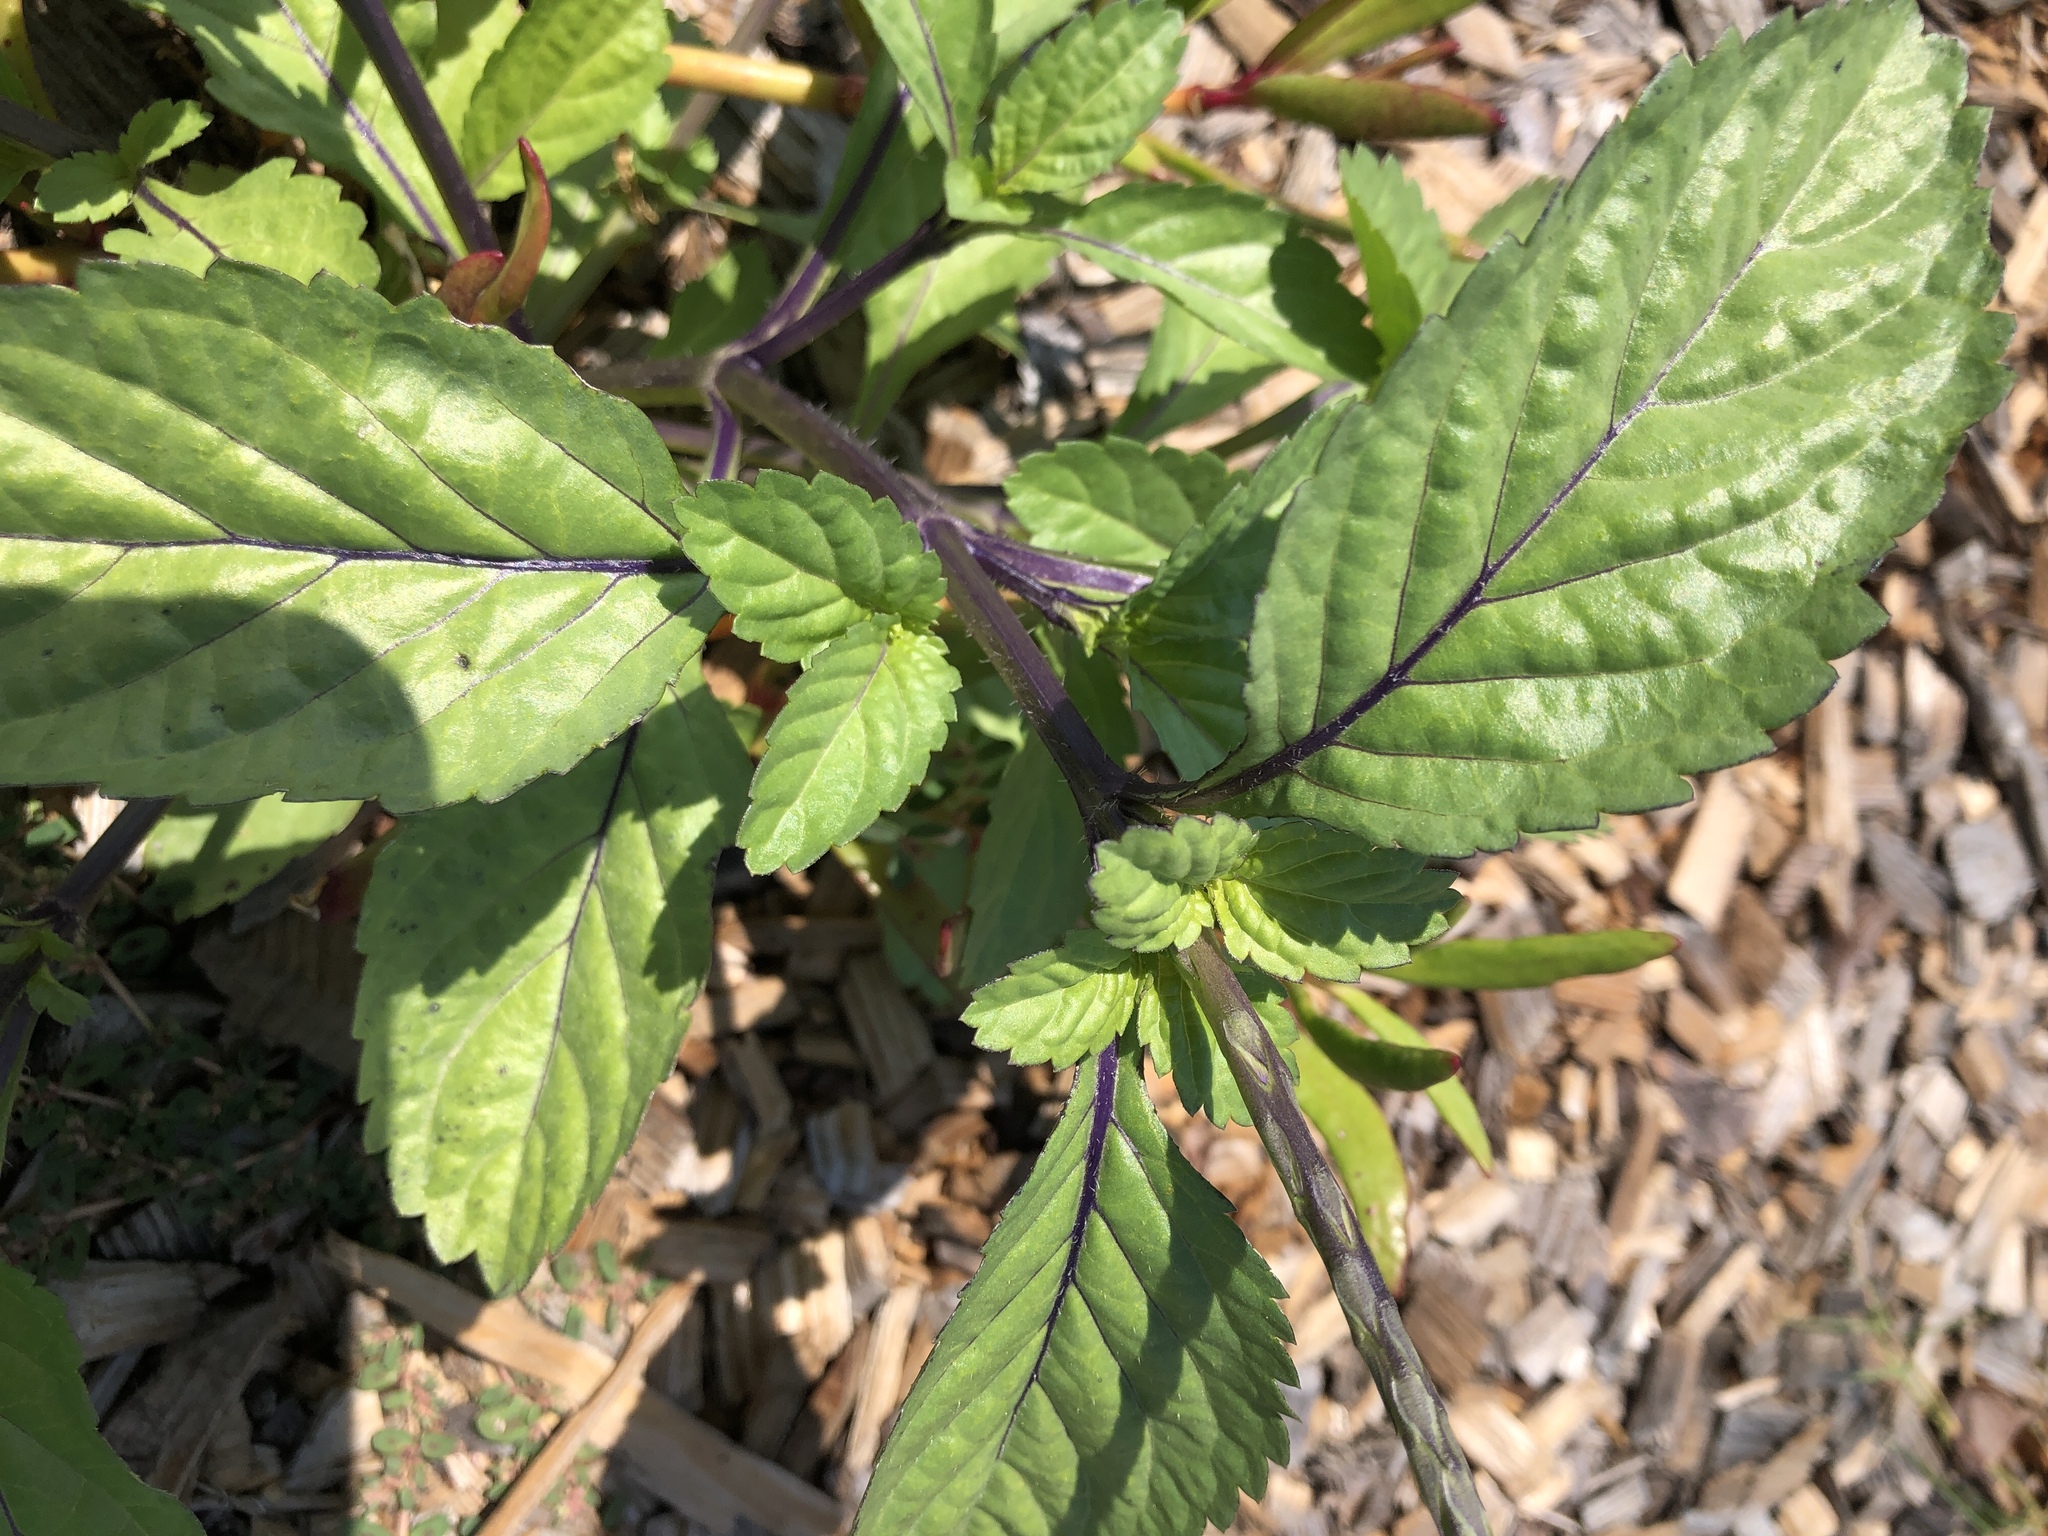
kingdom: Plantae
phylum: Tracheophyta
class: Magnoliopsida
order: Lamiales
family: Verbenaceae
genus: Stachytarpheta
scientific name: Stachytarpheta jamaicensis
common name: Light-blue snakeweed
